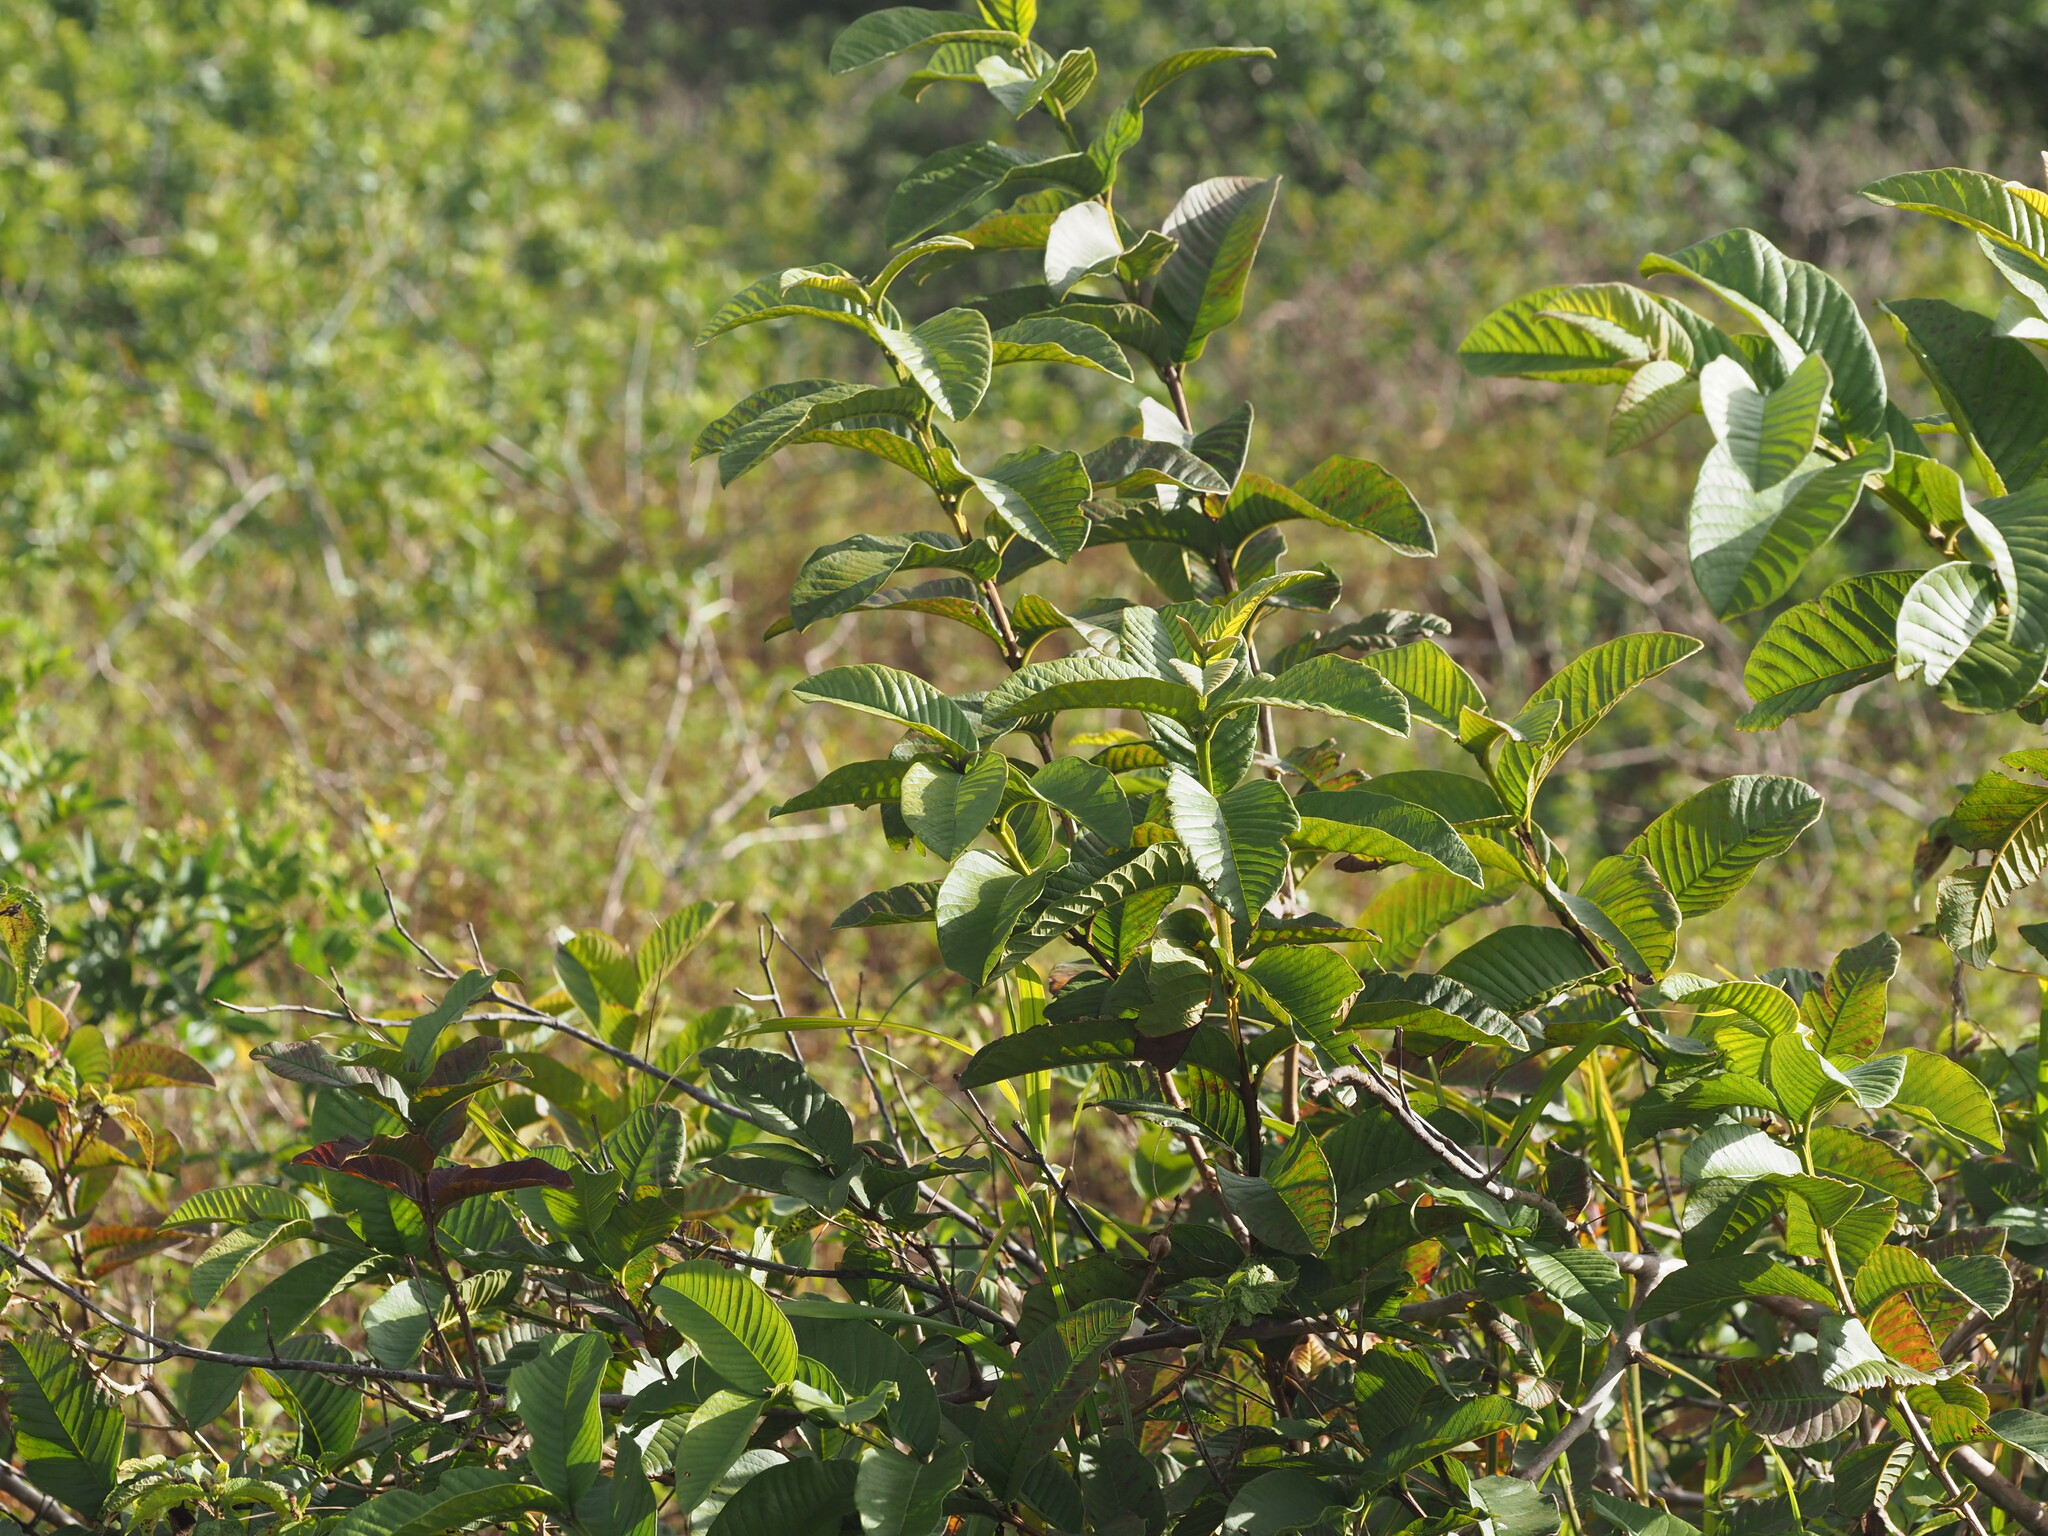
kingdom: Plantae
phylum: Tracheophyta
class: Magnoliopsida
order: Myrtales
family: Myrtaceae
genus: Psidium
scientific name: Psidium guajava
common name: Guava
